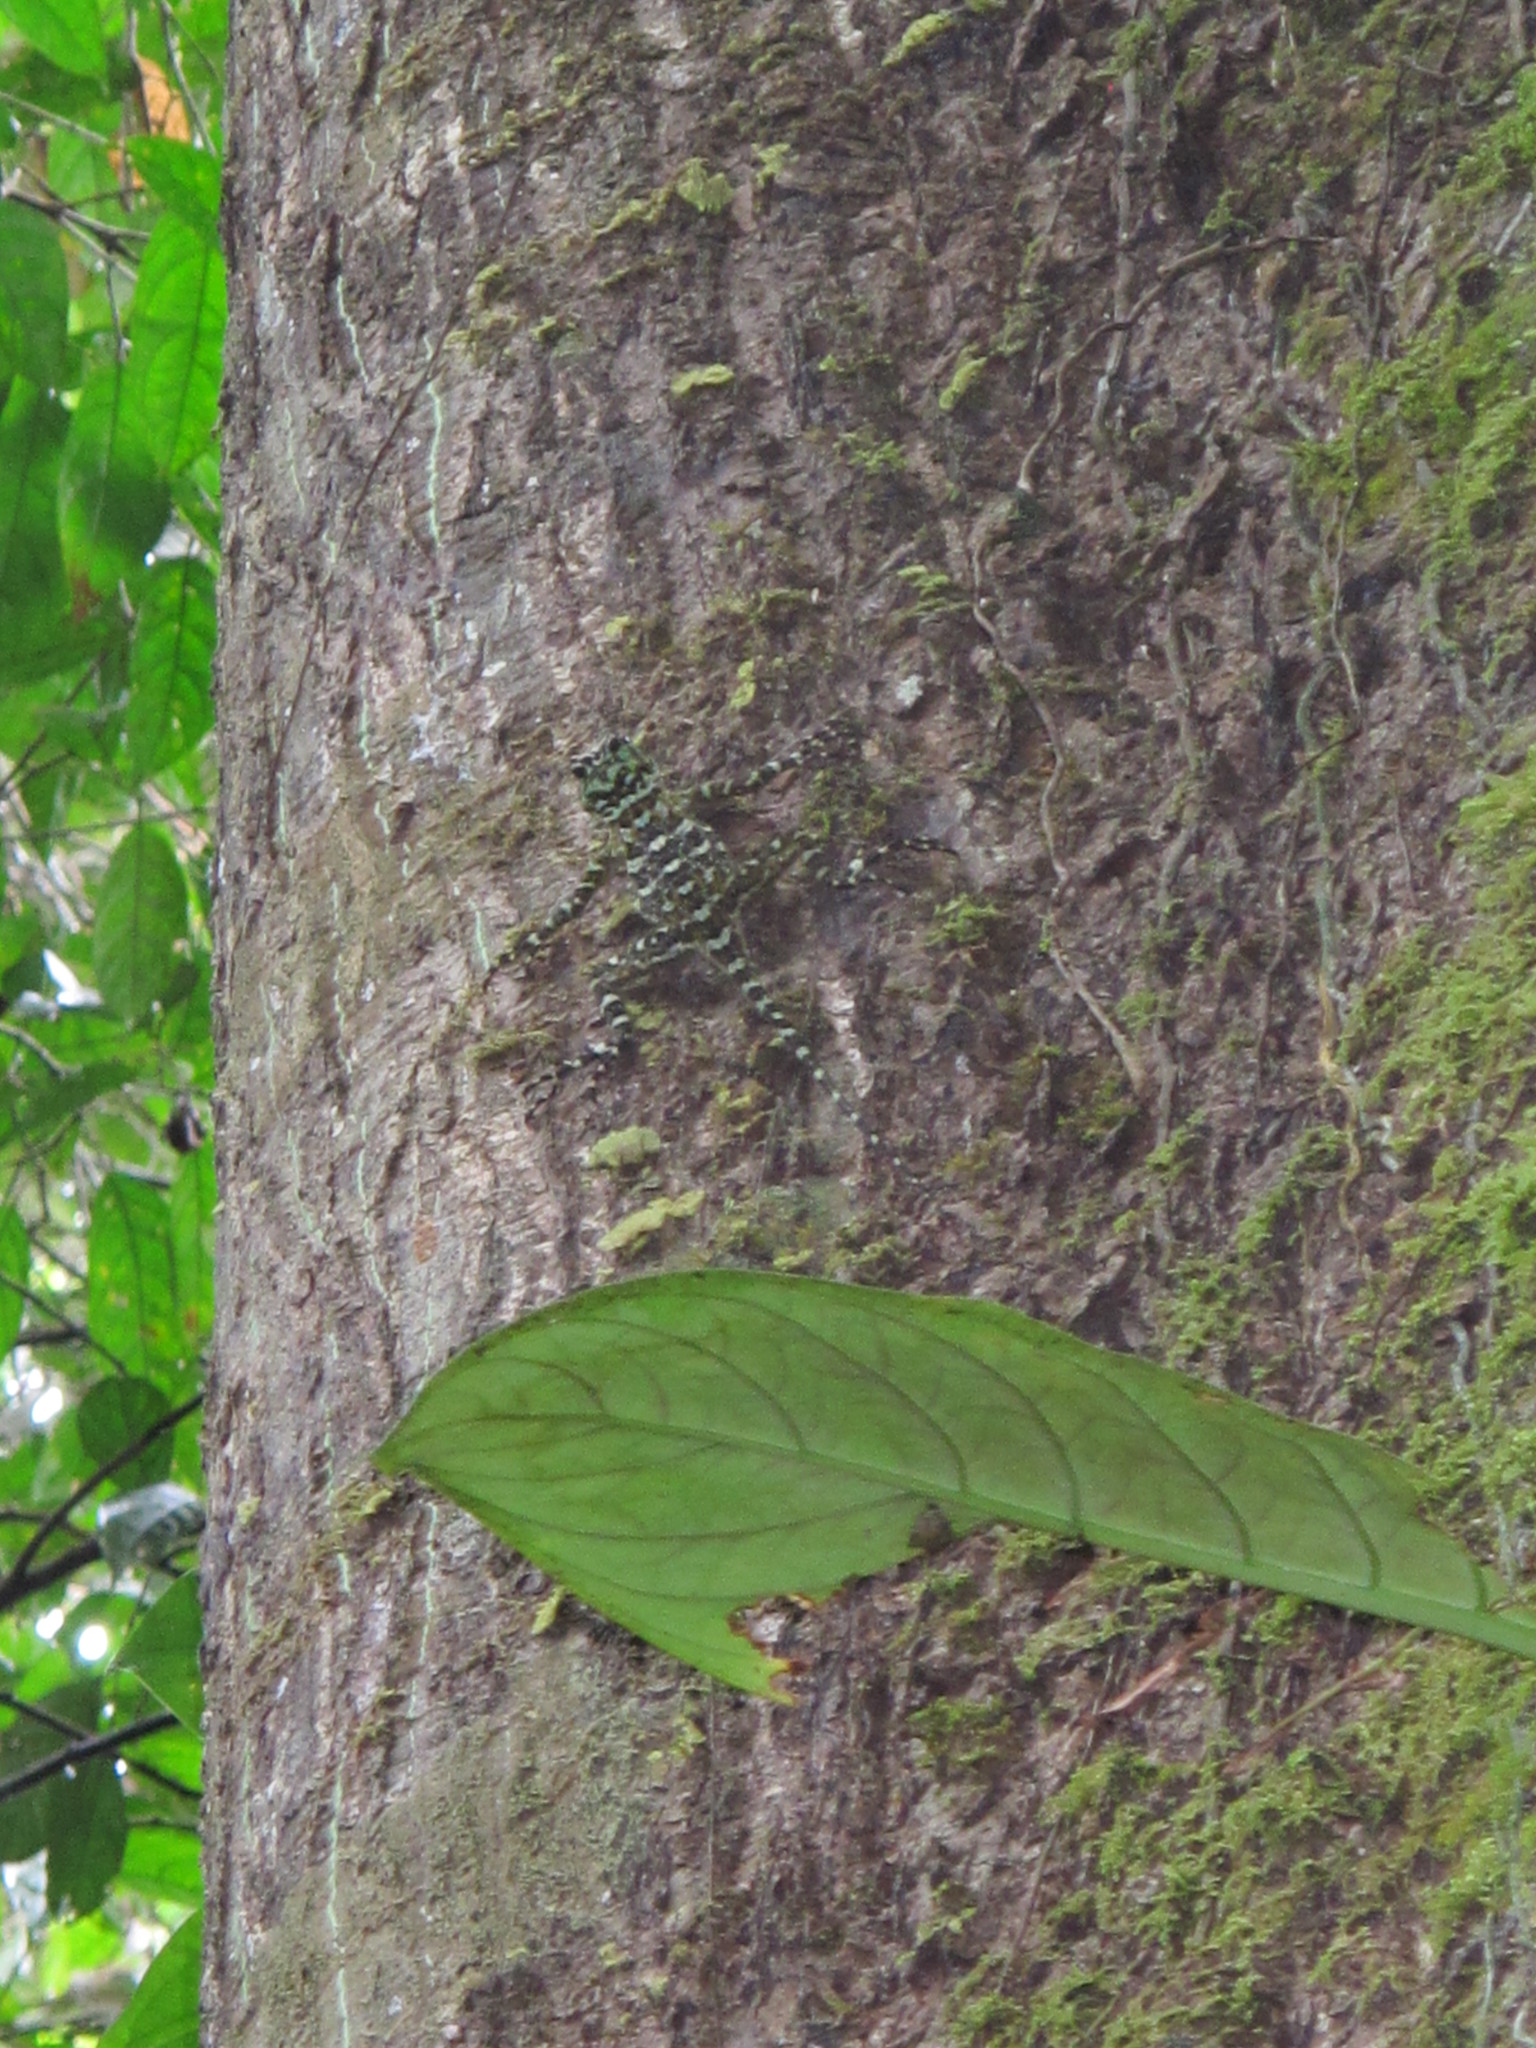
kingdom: Animalia
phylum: Chordata
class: Squamata
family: Tropiduridae
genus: Plica
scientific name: Plica plica
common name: Tree runner
